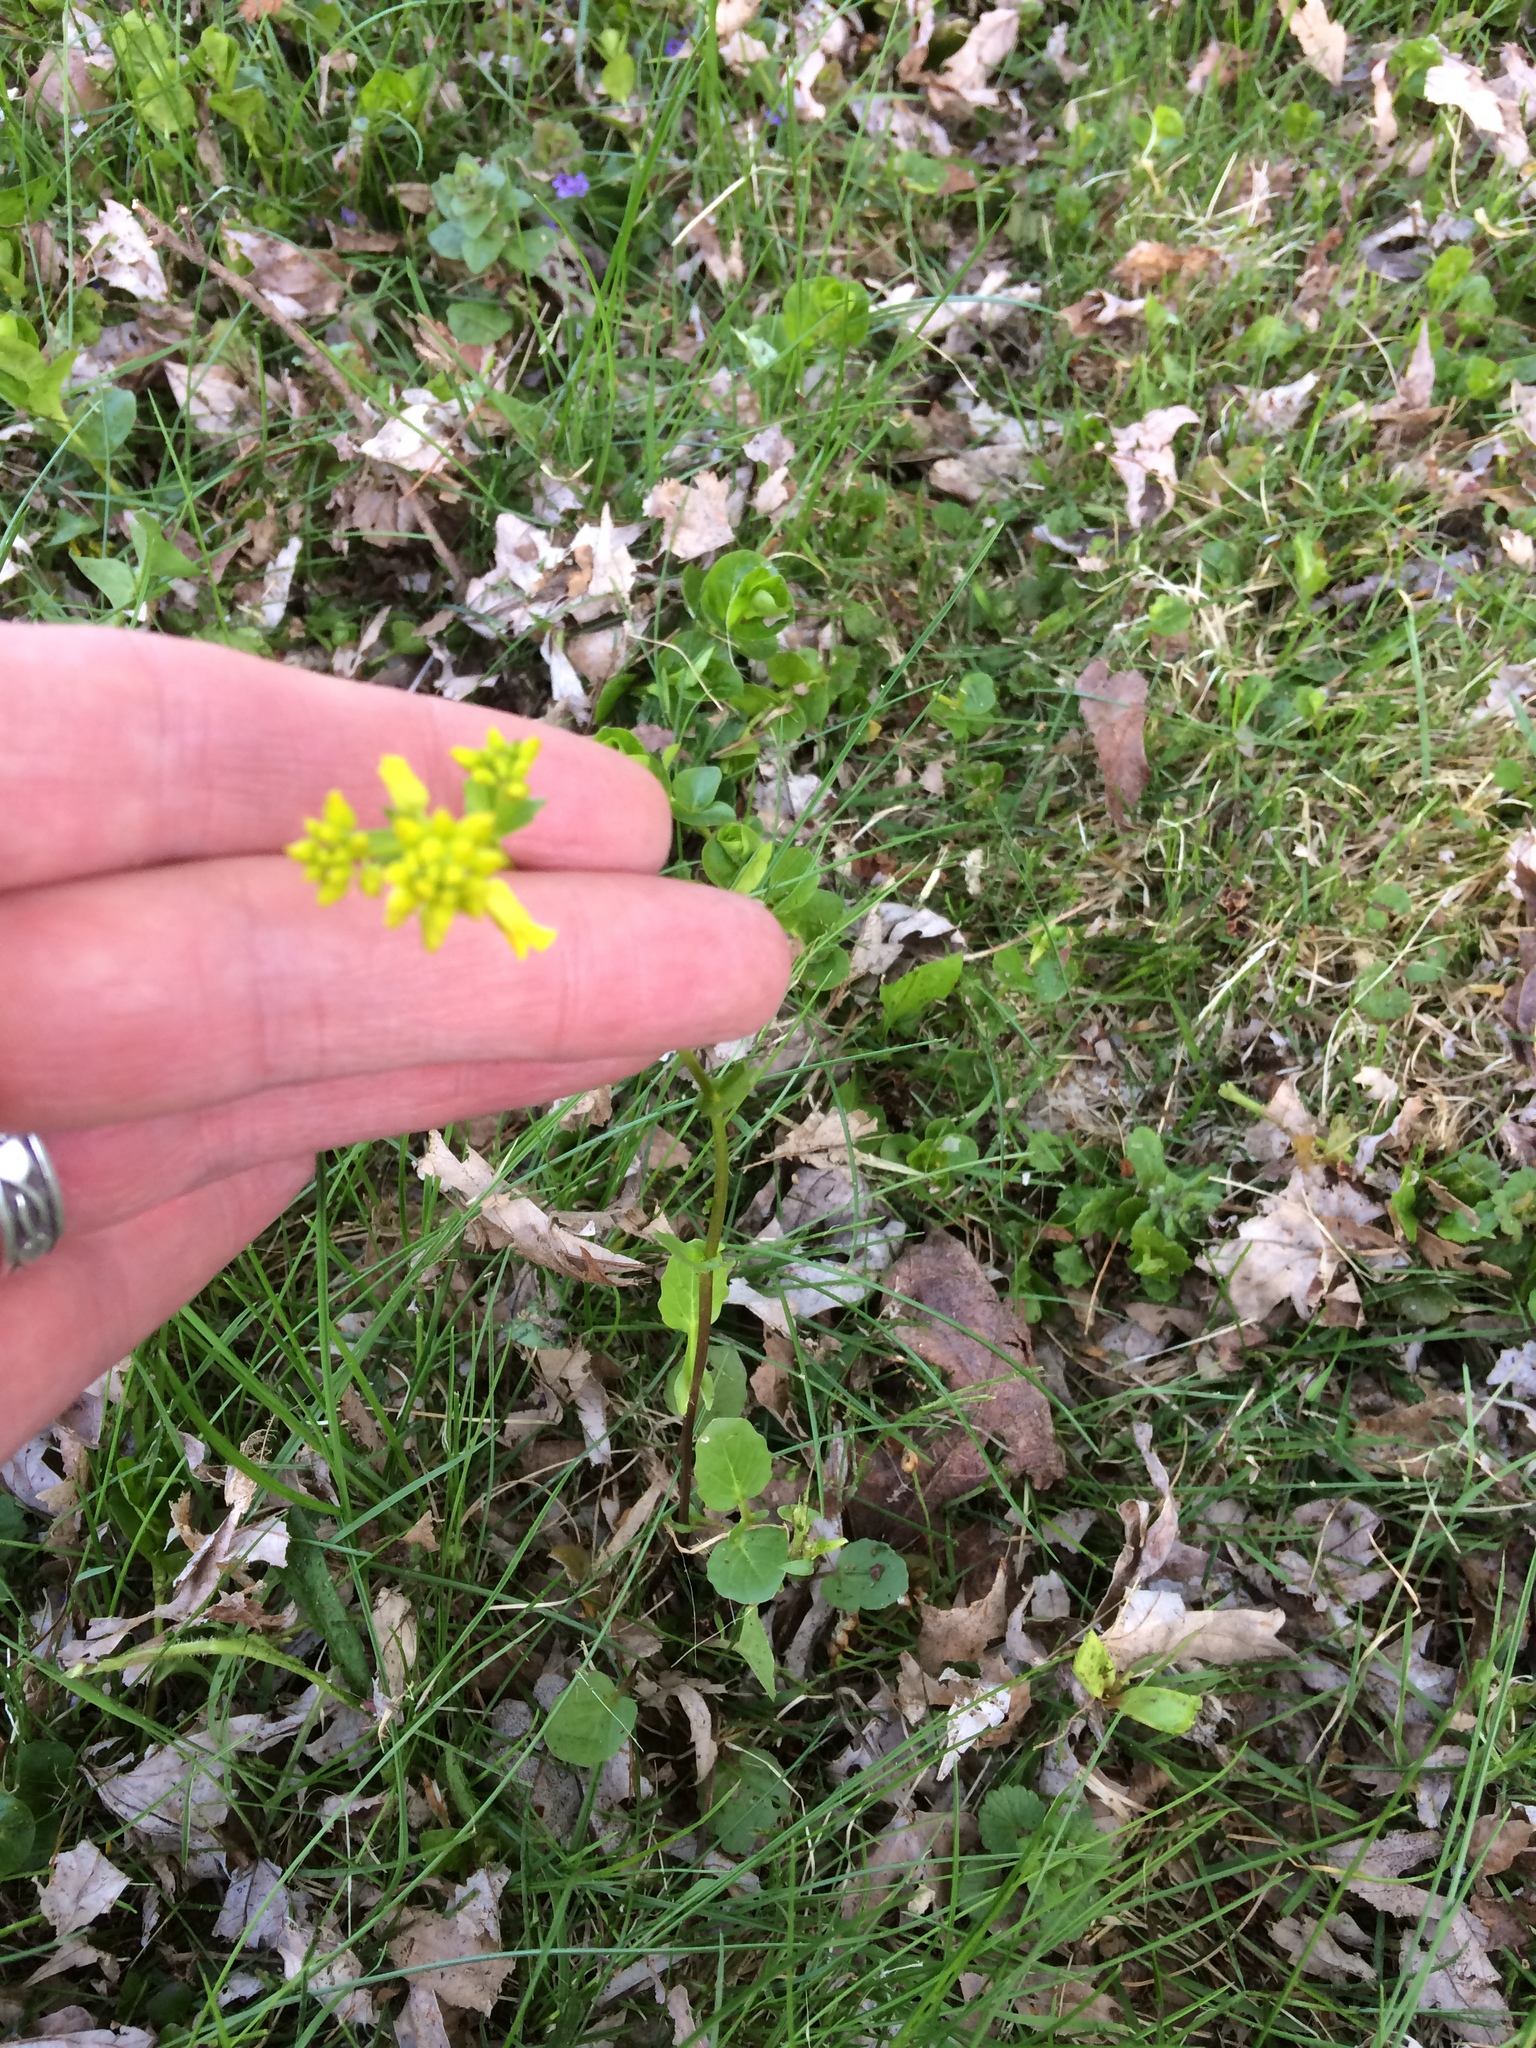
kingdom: Plantae
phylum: Tracheophyta
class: Magnoliopsida
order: Brassicales
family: Brassicaceae
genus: Barbarea
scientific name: Barbarea vulgaris
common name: Cressy-greens
